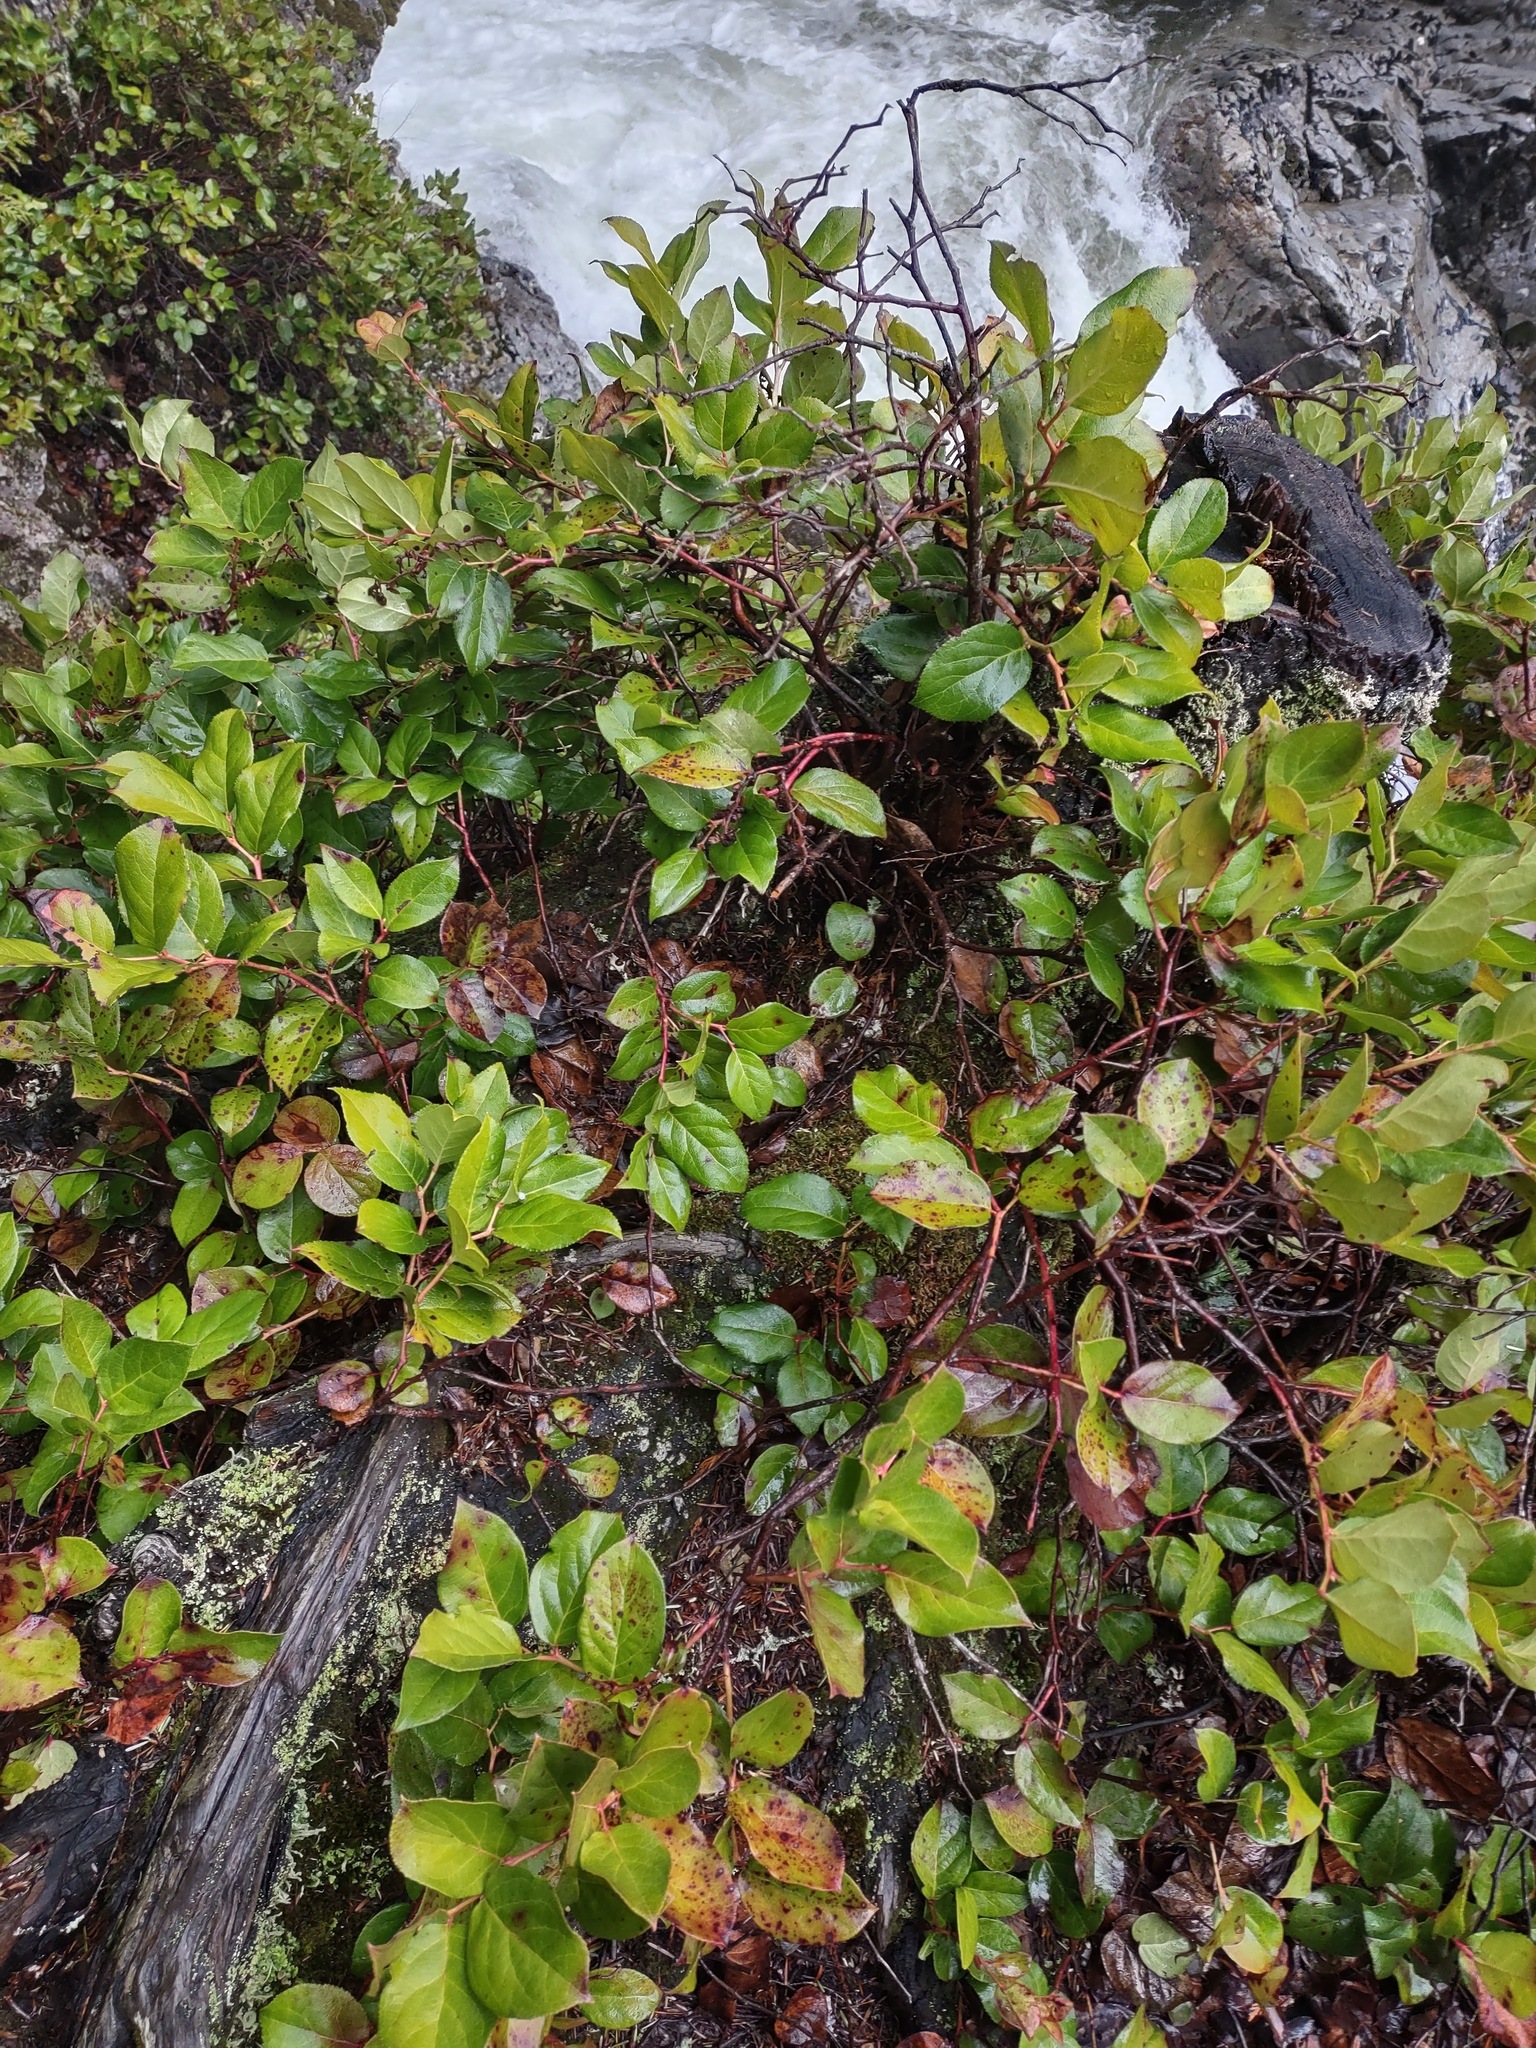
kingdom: Plantae
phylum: Tracheophyta
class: Magnoliopsida
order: Ericales
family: Ericaceae
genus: Gaultheria
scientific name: Gaultheria shallon
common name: Shallon
